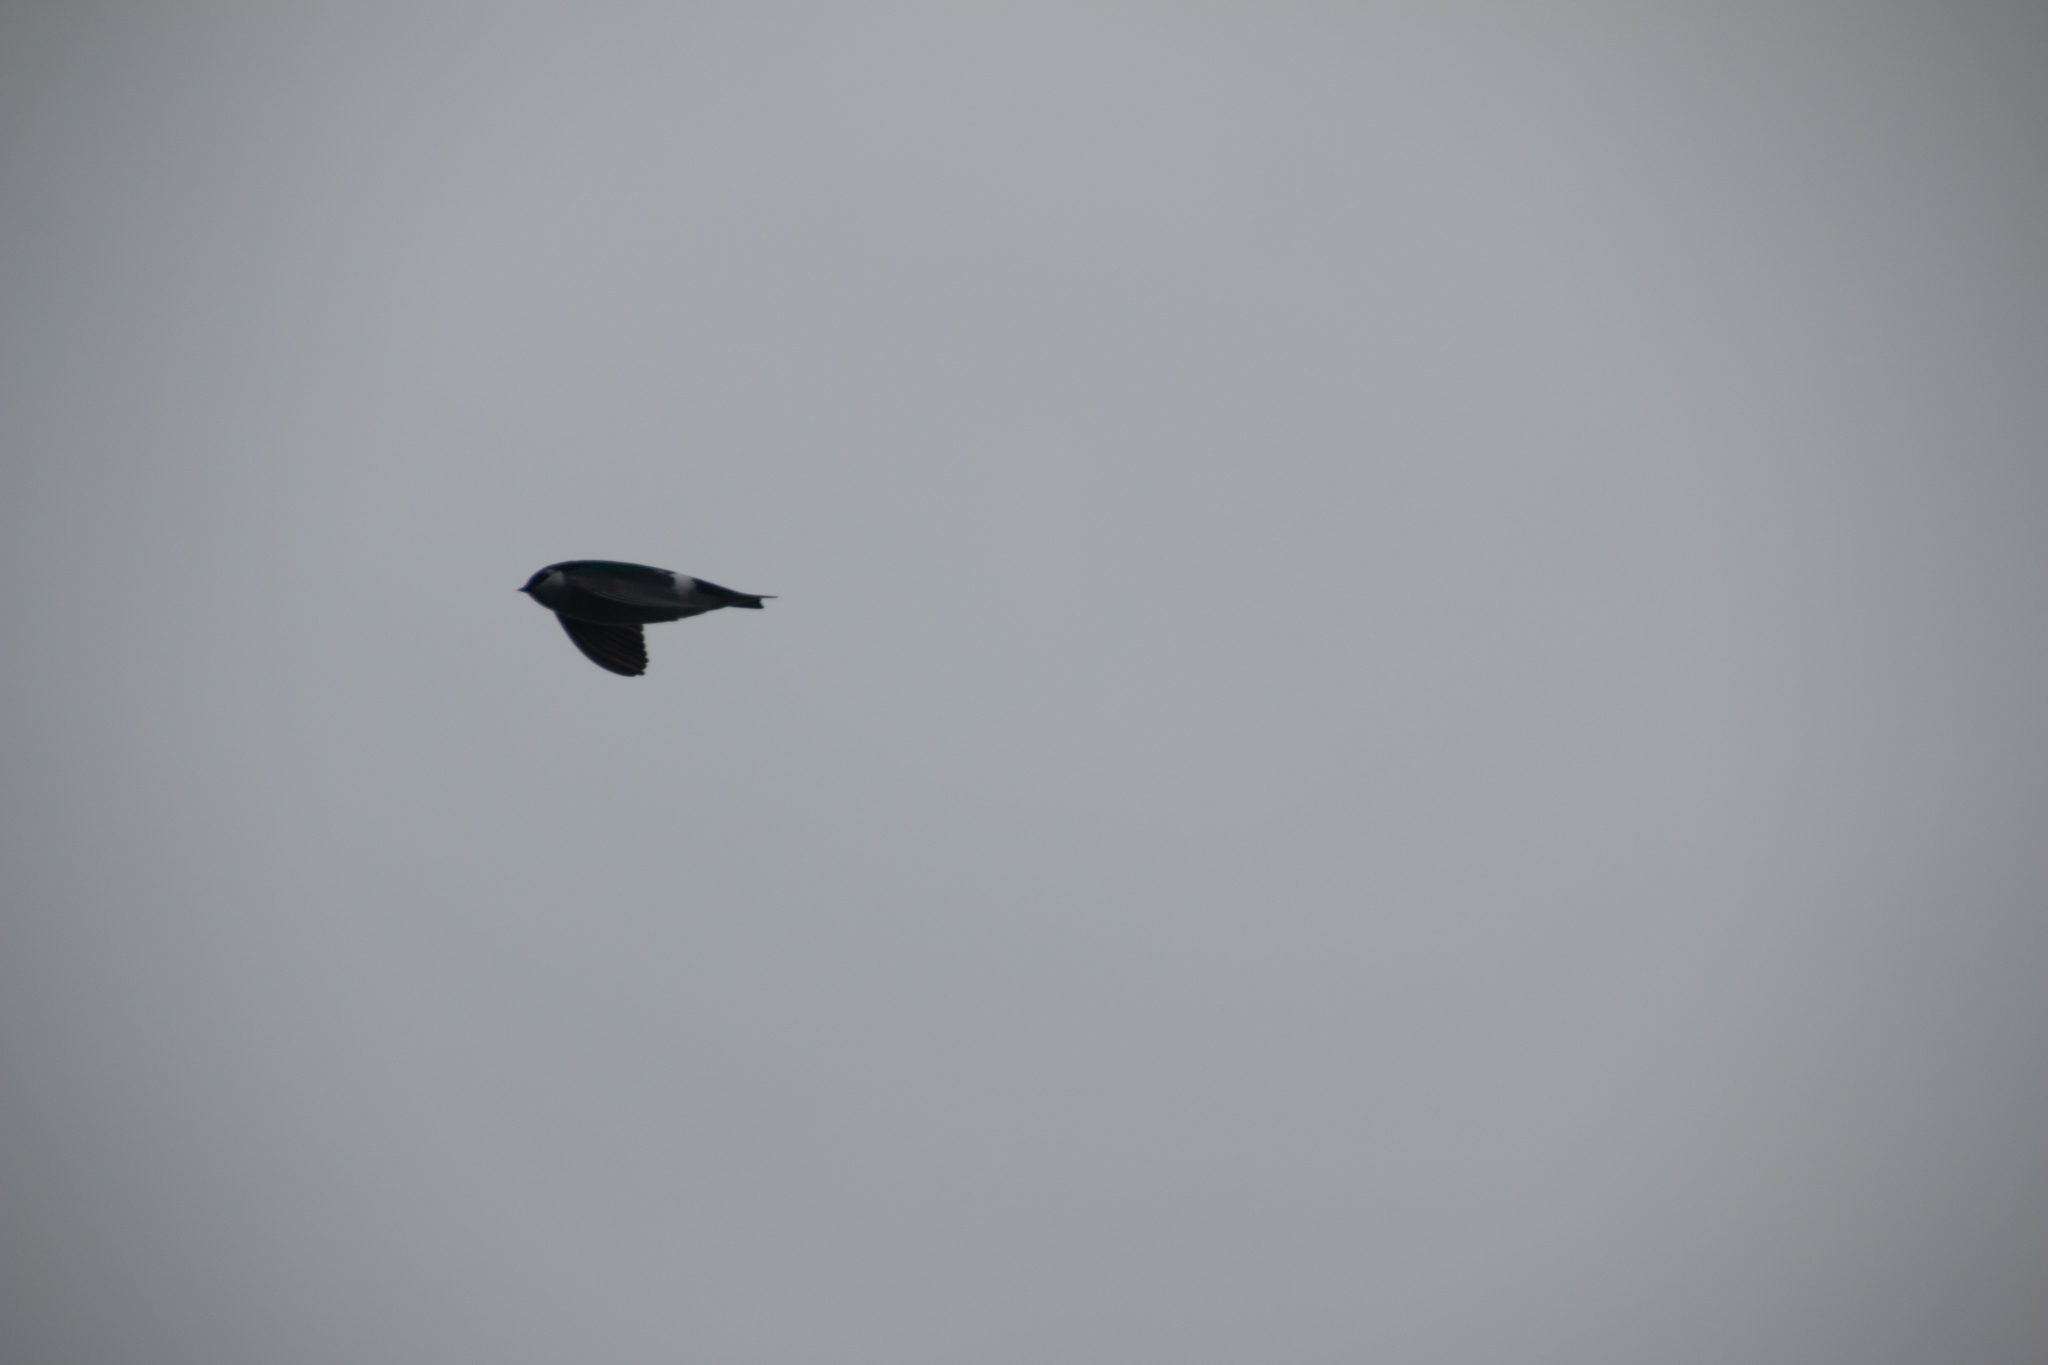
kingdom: Animalia
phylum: Chordata
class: Aves
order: Passeriformes
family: Hirundinidae
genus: Tachycineta
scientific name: Tachycineta thalassina
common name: Violet-green swallow
